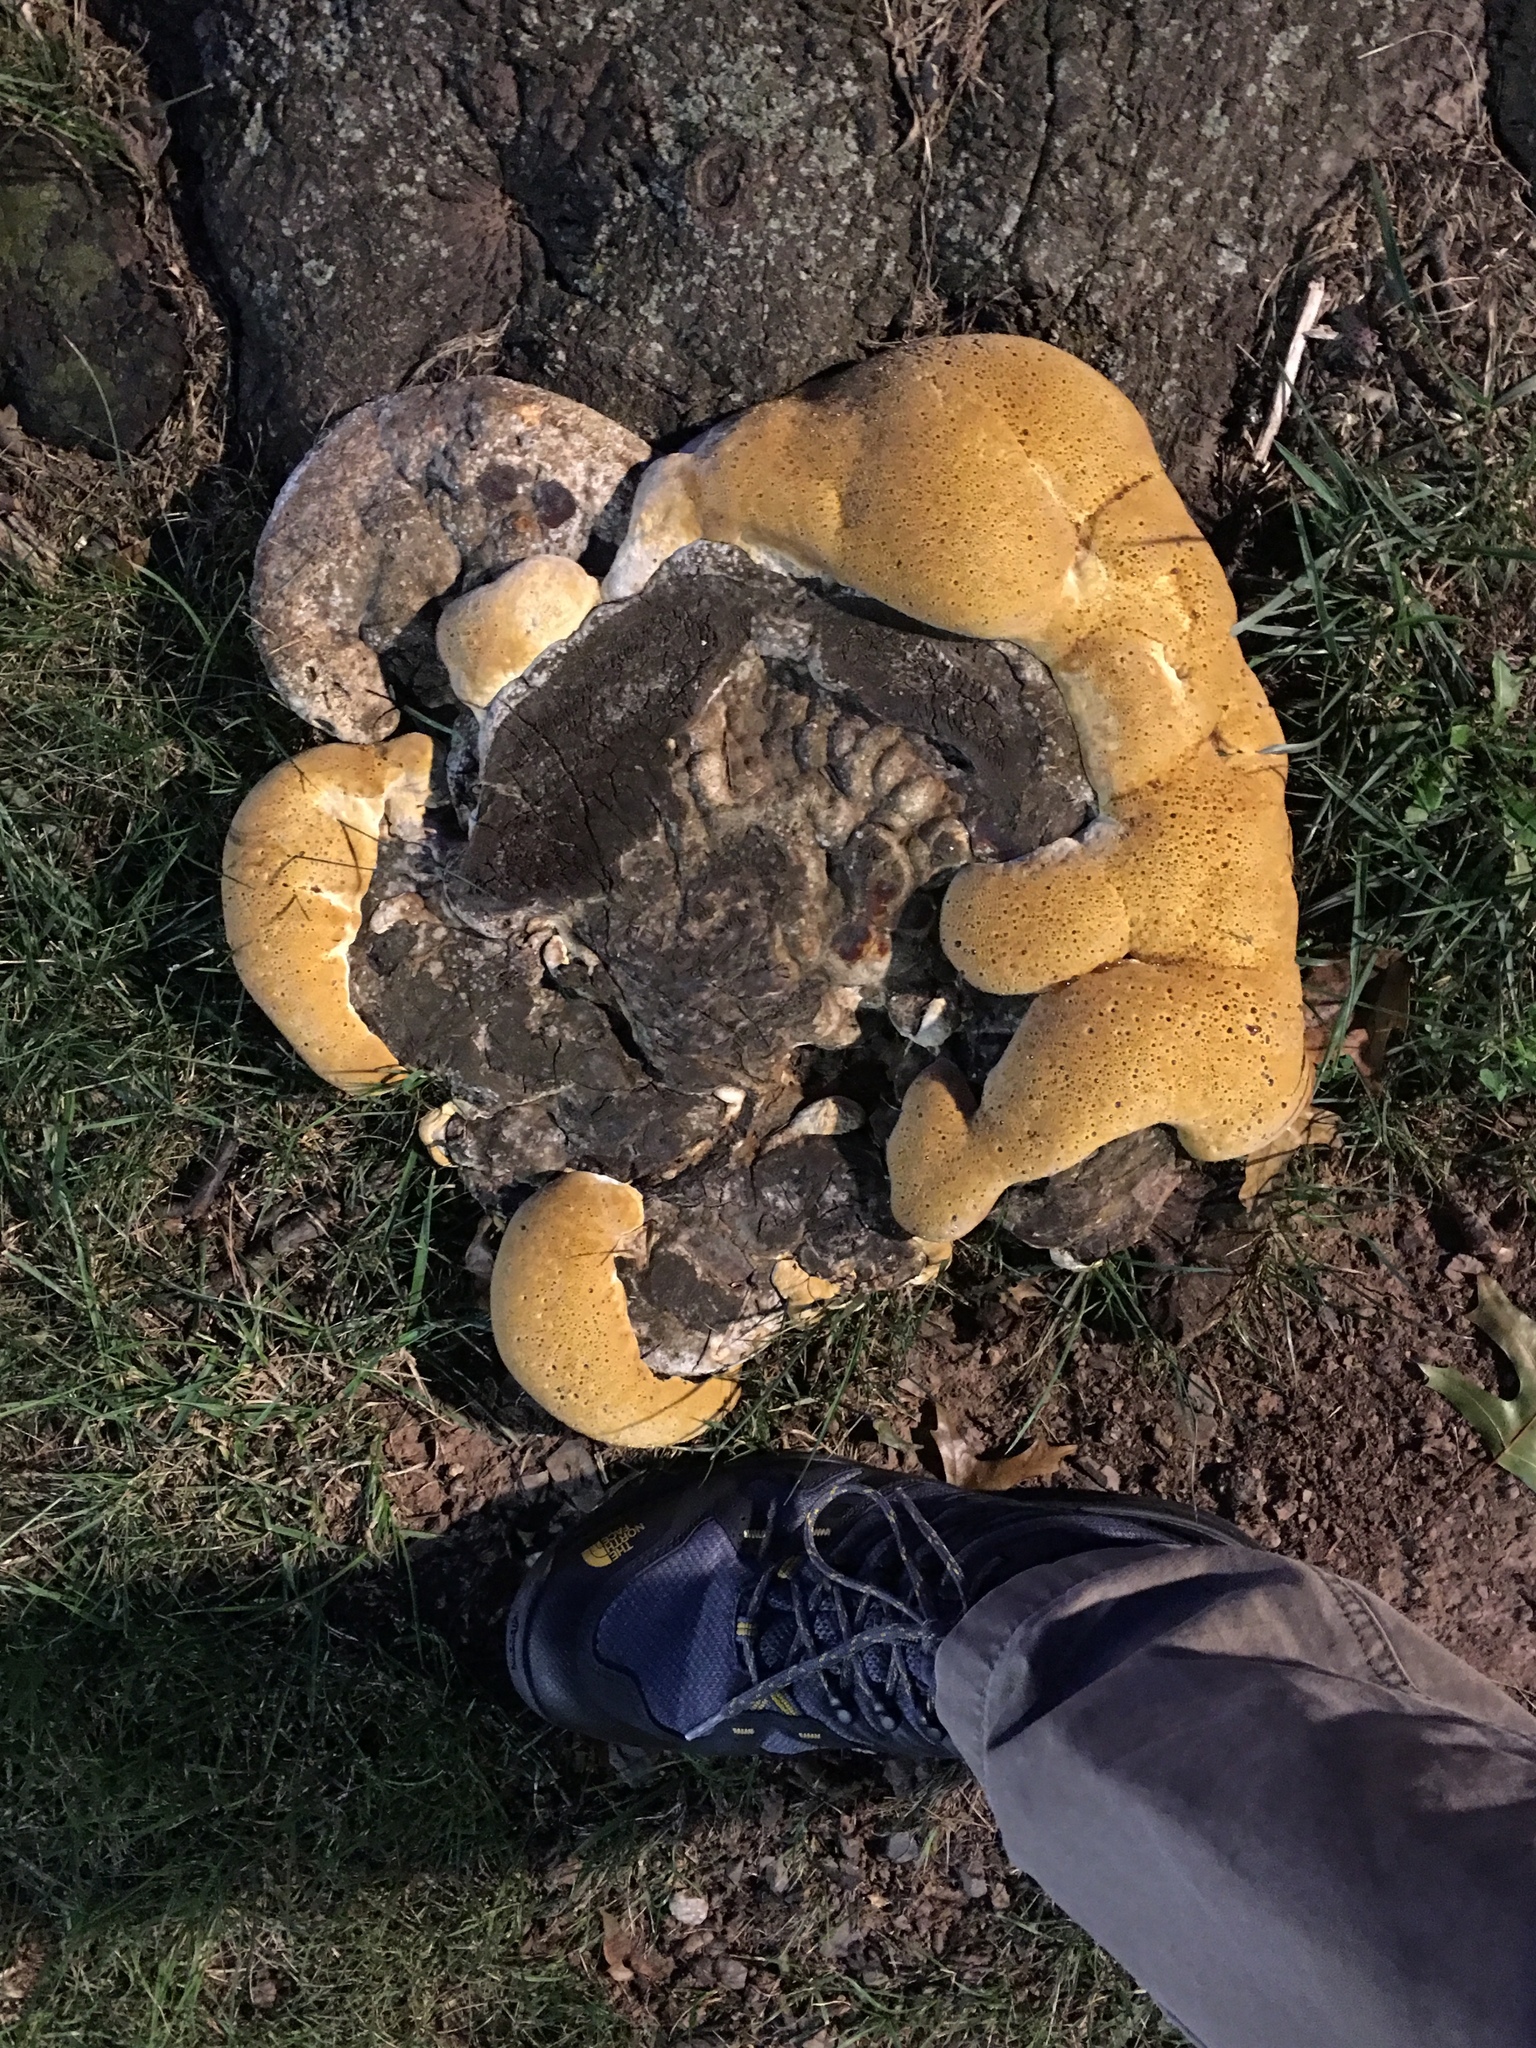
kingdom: Fungi
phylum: Basidiomycota
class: Agaricomycetes
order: Hymenochaetales
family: Hymenochaetaceae
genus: Pseudoinonotus
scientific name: Pseudoinonotus dryadeus
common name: Oak bracket
